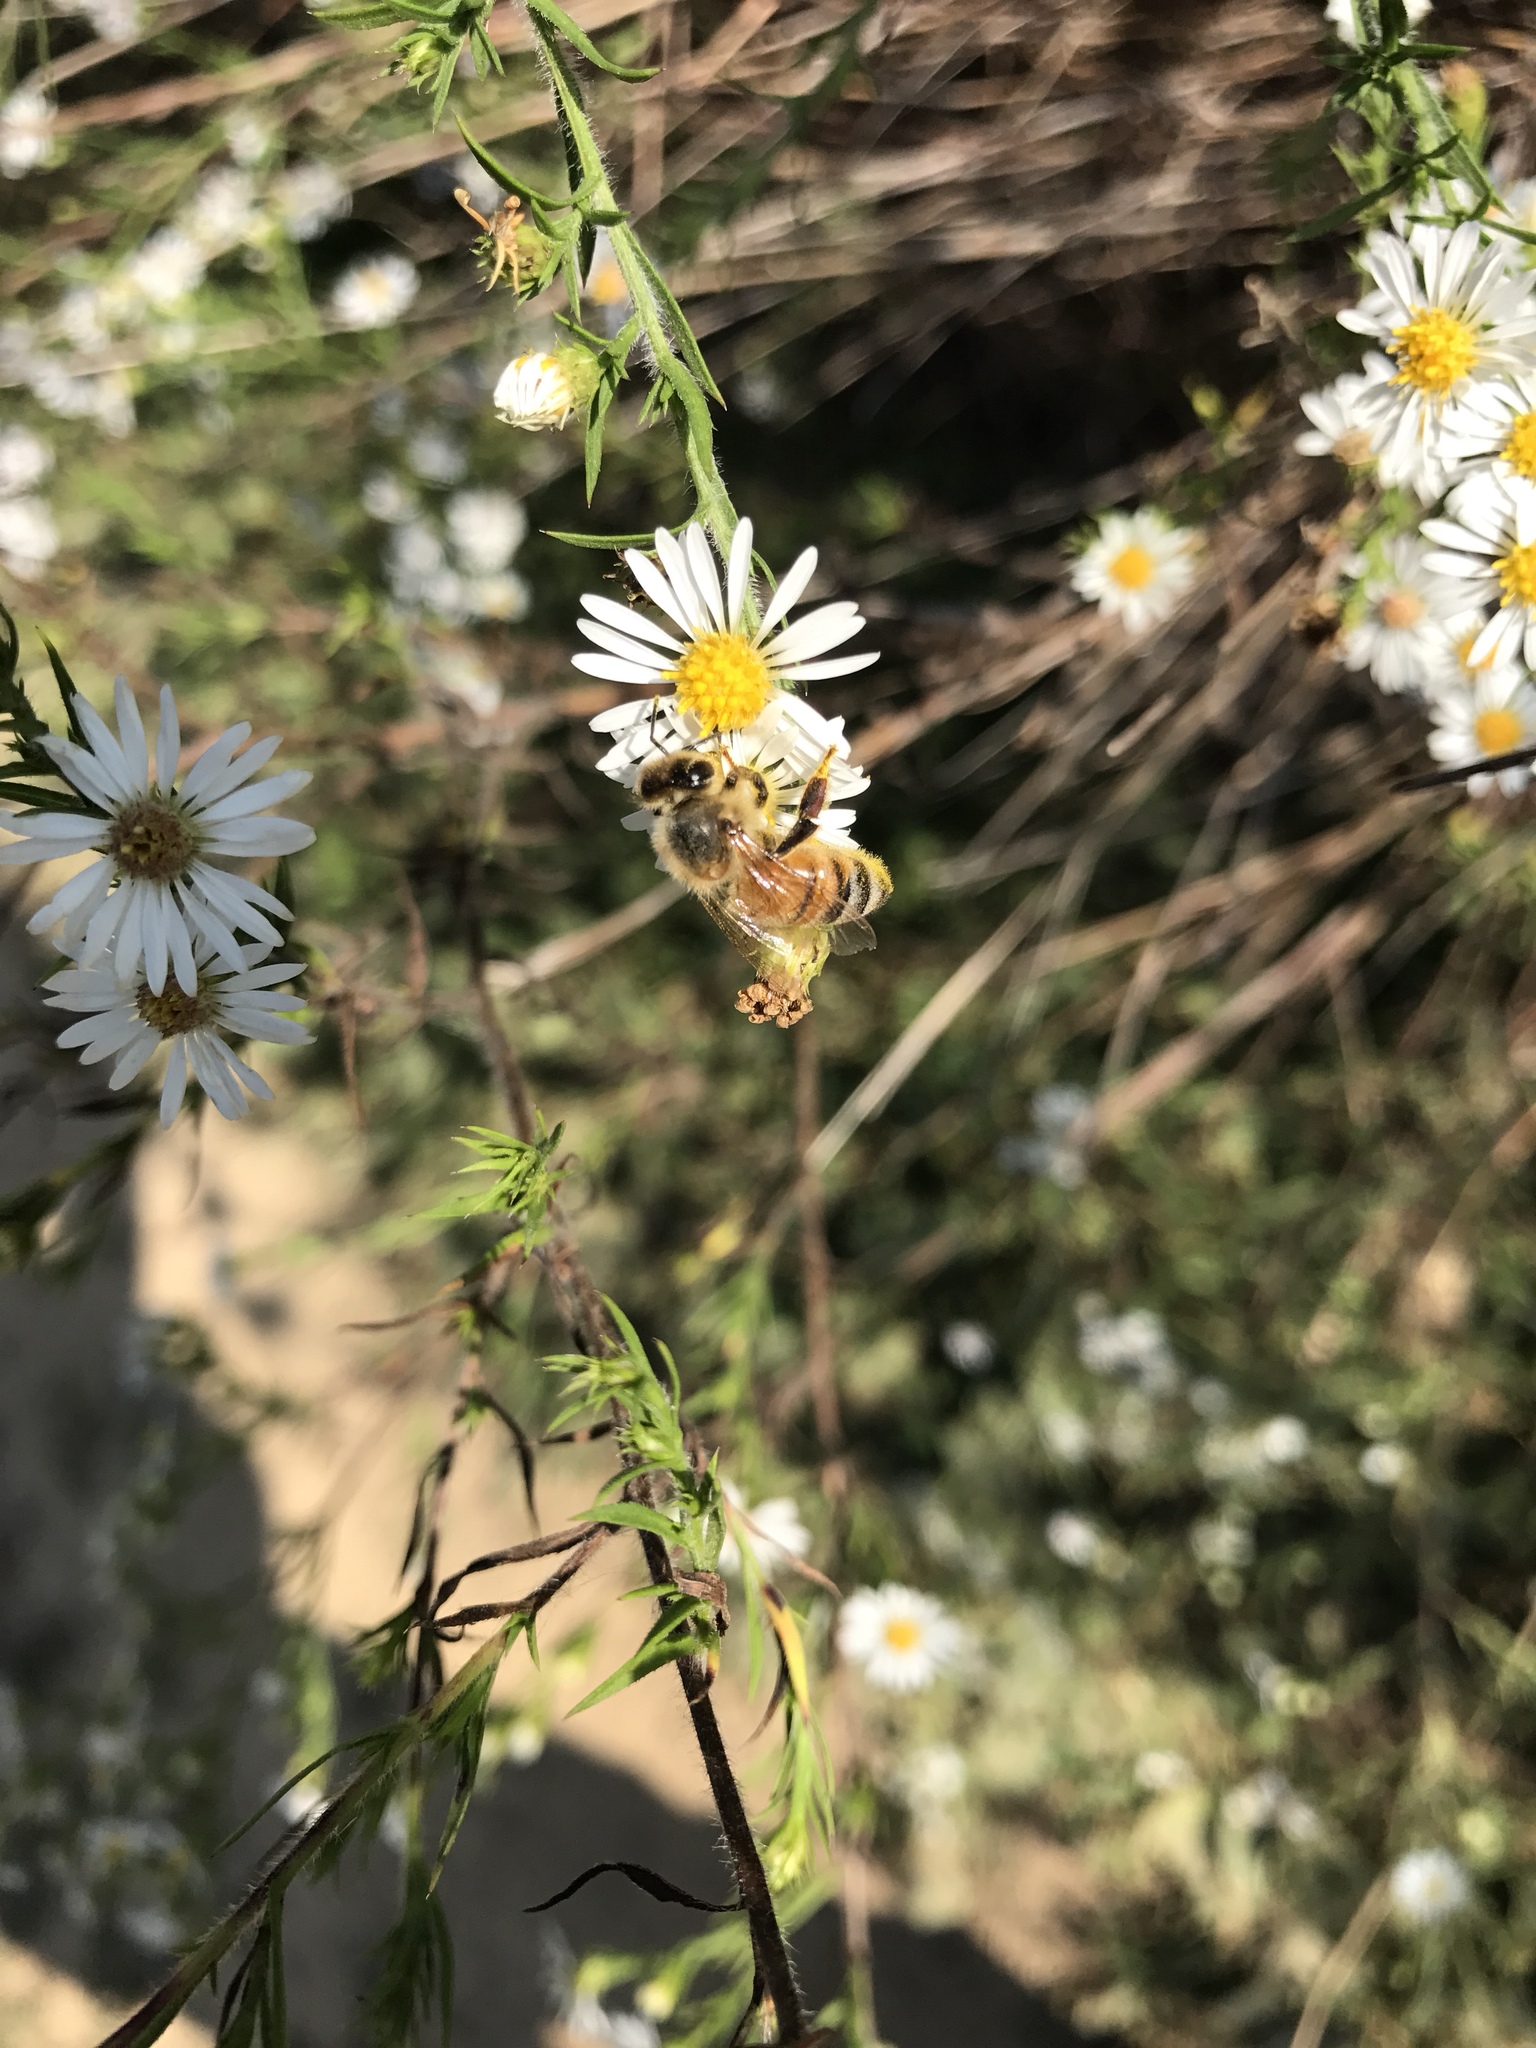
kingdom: Animalia
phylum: Arthropoda
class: Insecta
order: Hymenoptera
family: Apidae
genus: Apis
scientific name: Apis mellifera
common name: Honey bee
